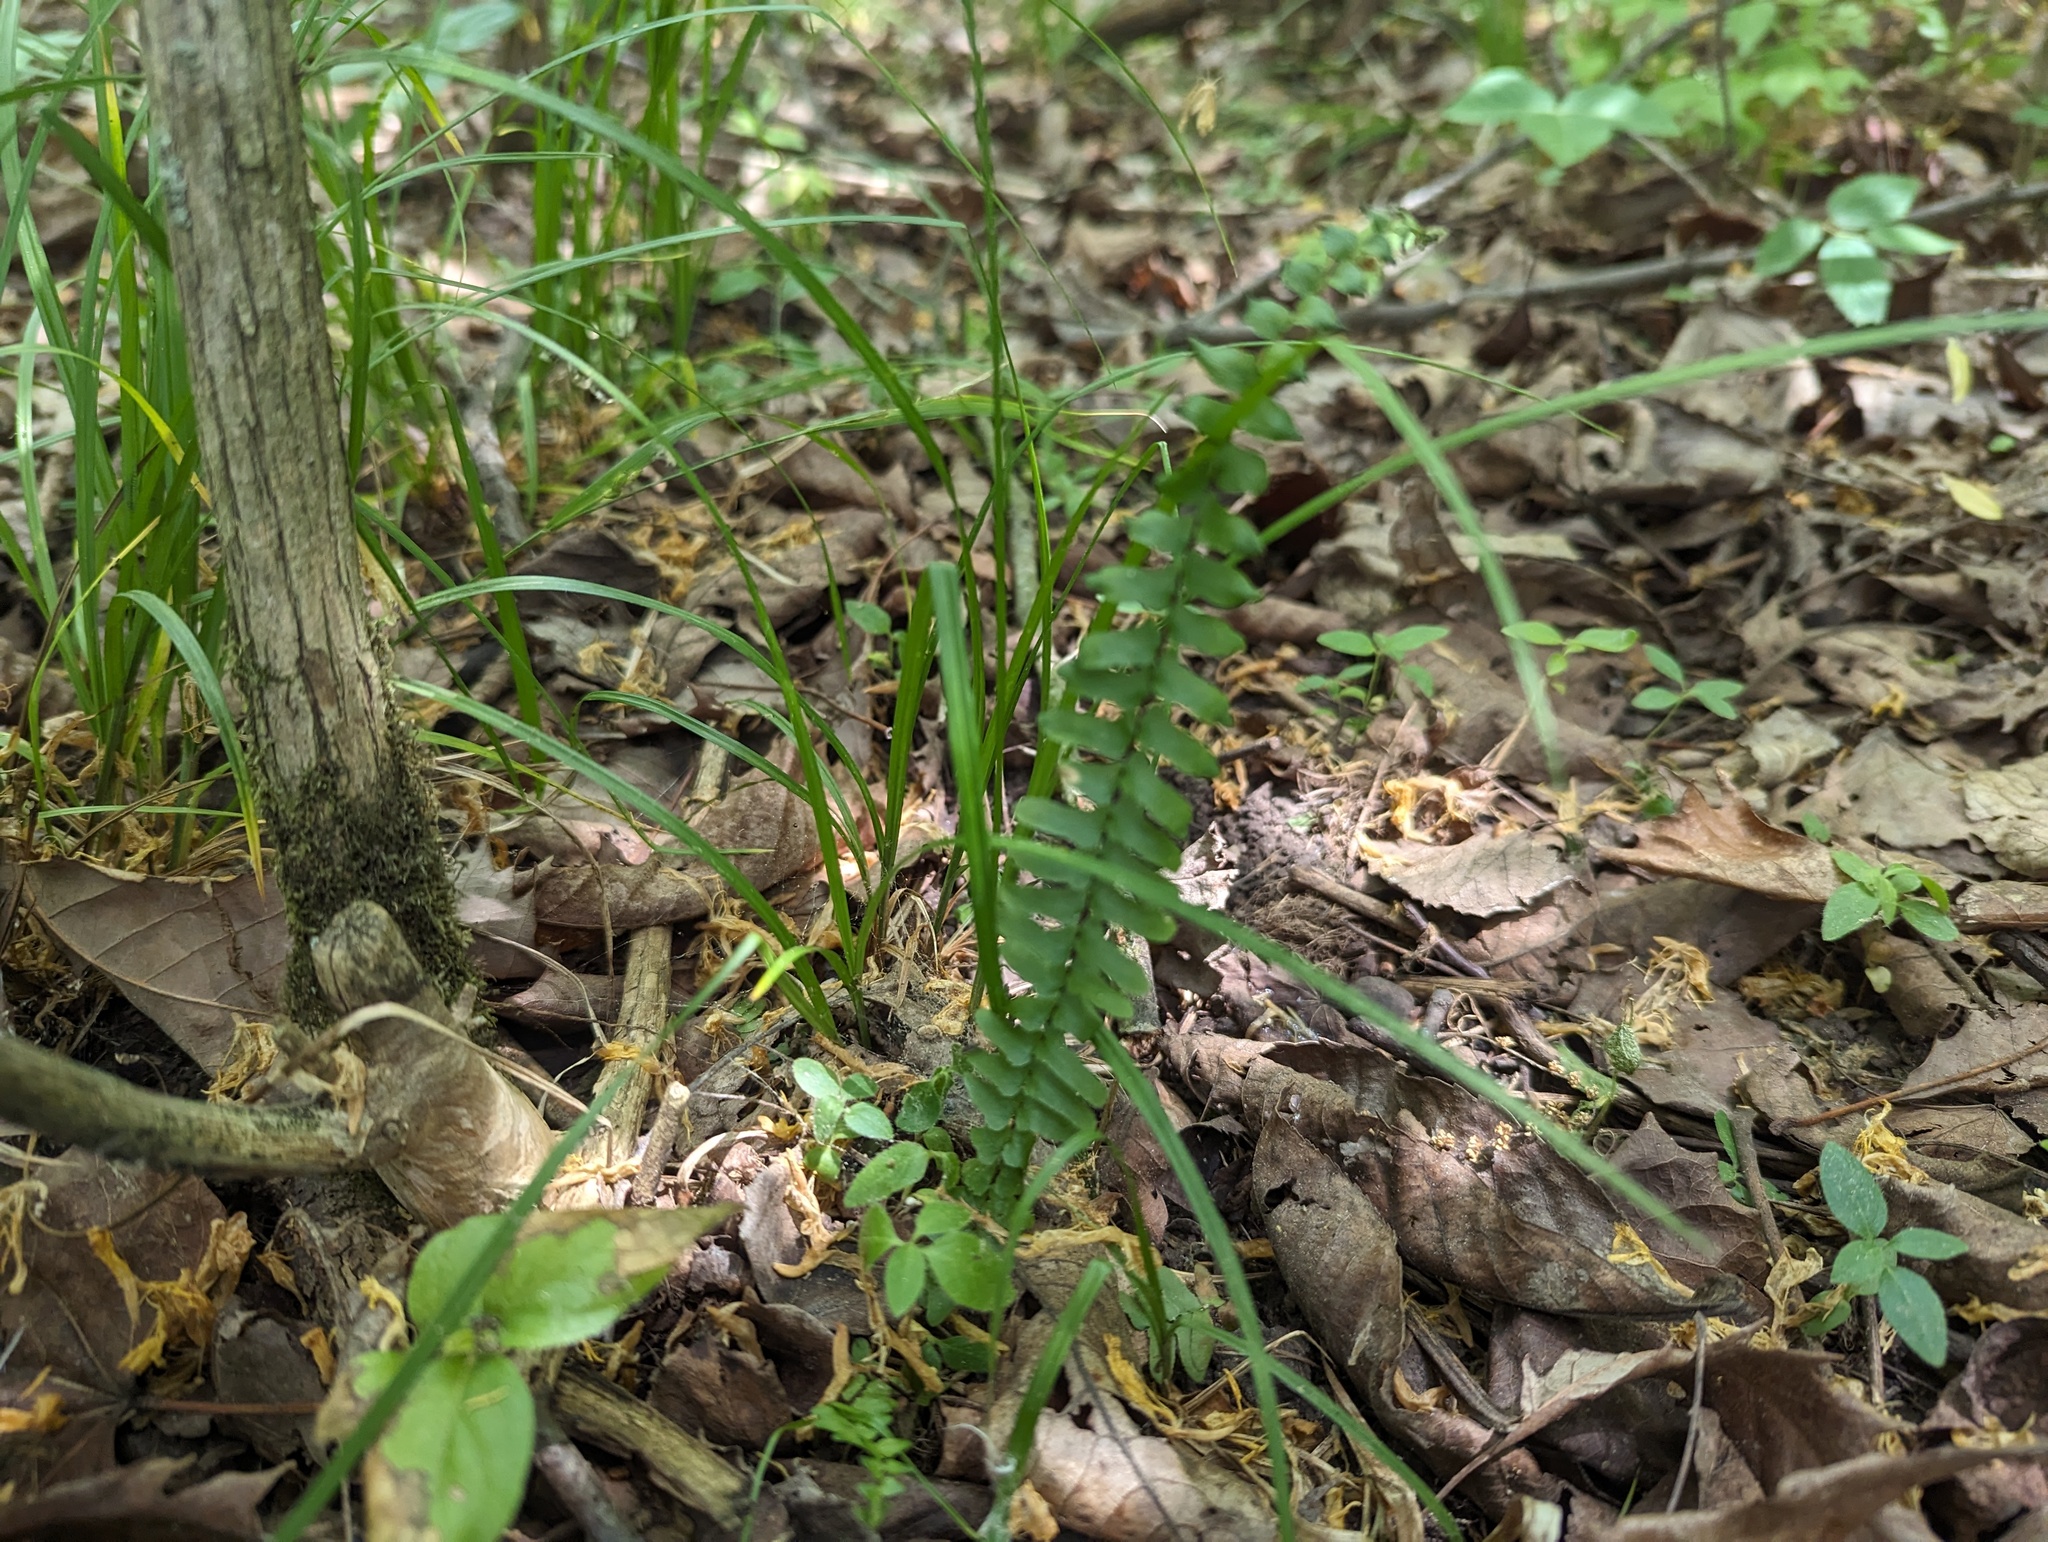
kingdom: Plantae
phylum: Tracheophyta
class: Polypodiopsida
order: Polypodiales
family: Aspleniaceae
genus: Asplenium
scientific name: Asplenium platyneuron
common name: Ebony spleenwort
